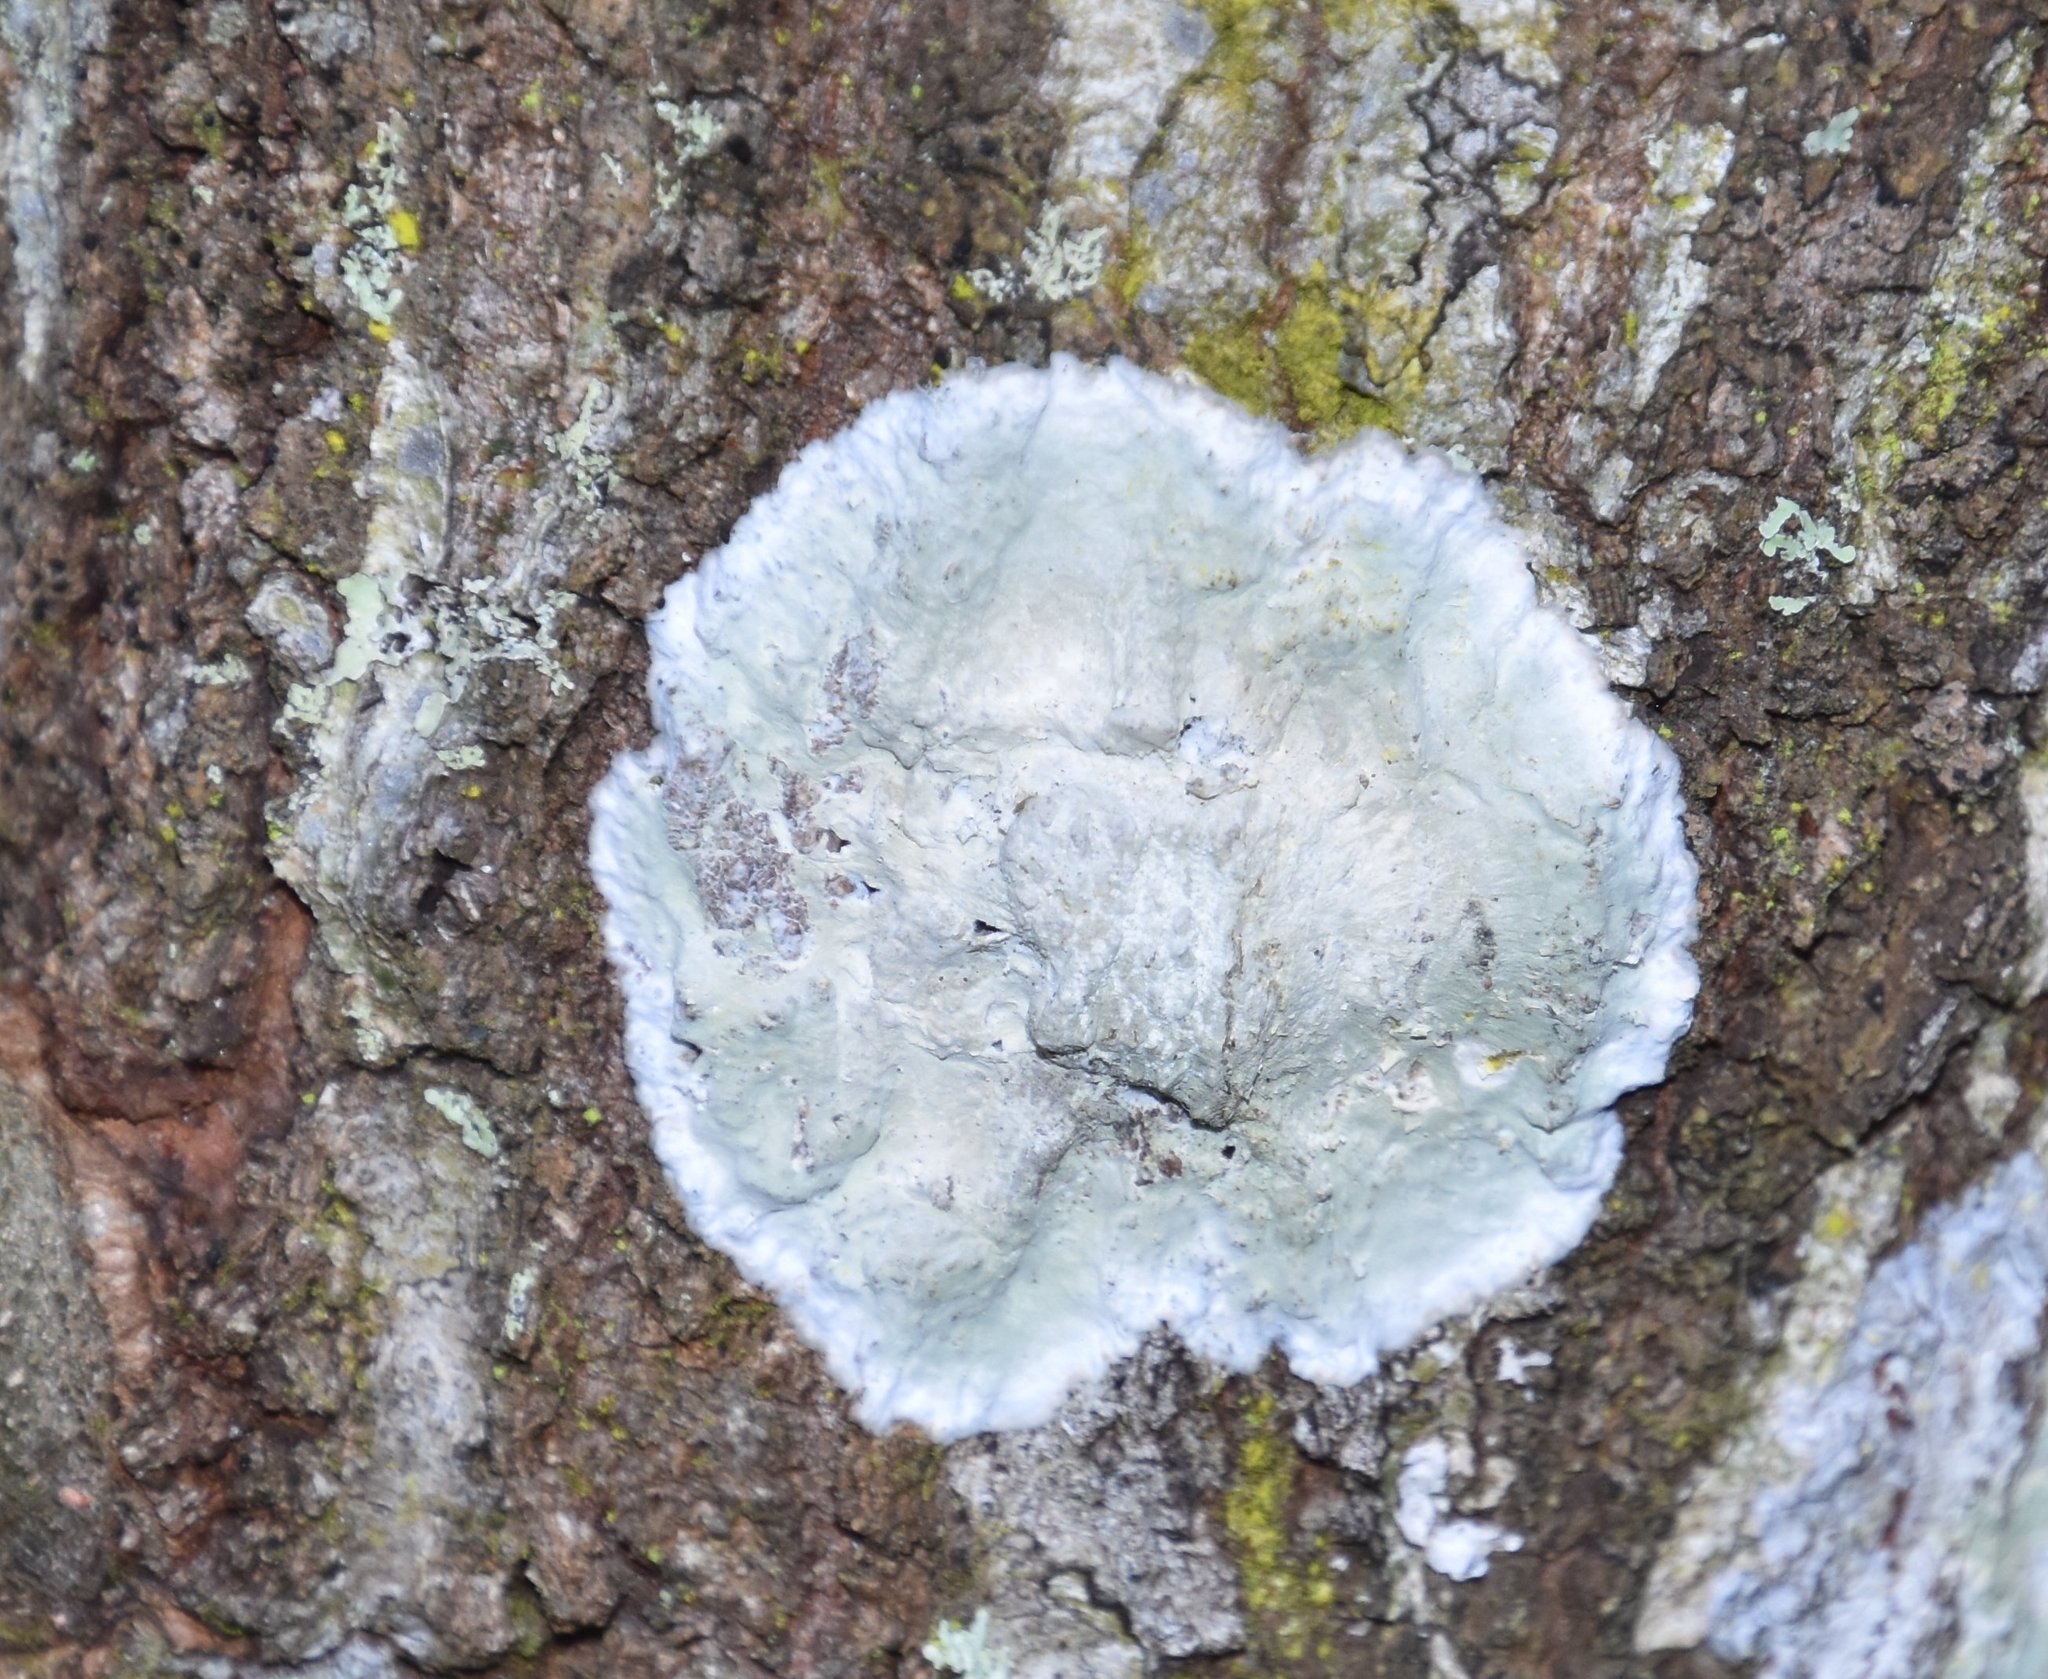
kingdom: Fungi
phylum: Ascomycota
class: Arthoniomycetes
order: Arthoniales
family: Arthoniaceae
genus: Cryptothecia
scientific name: Cryptothecia striata
